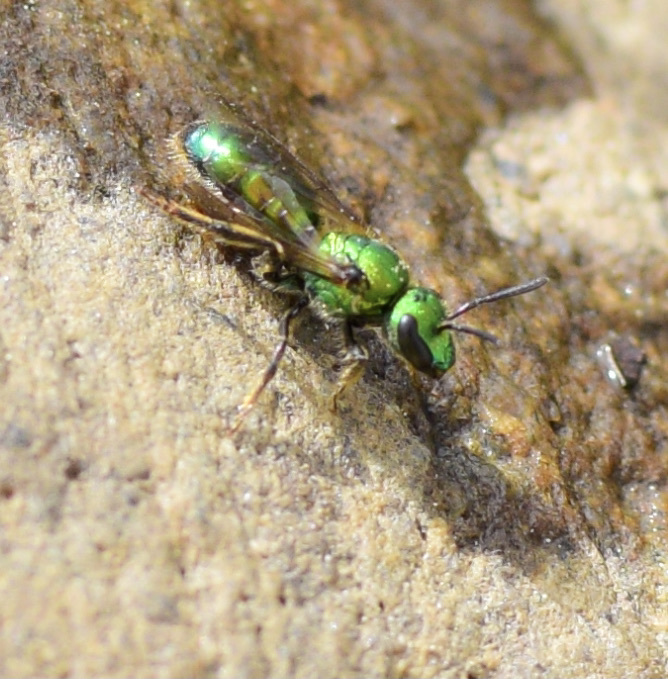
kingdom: Animalia
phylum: Arthropoda
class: Insecta
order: Hymenoptera
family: Halictidae
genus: Augochlora
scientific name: Augochlora pura
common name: Pure green sweat bee
